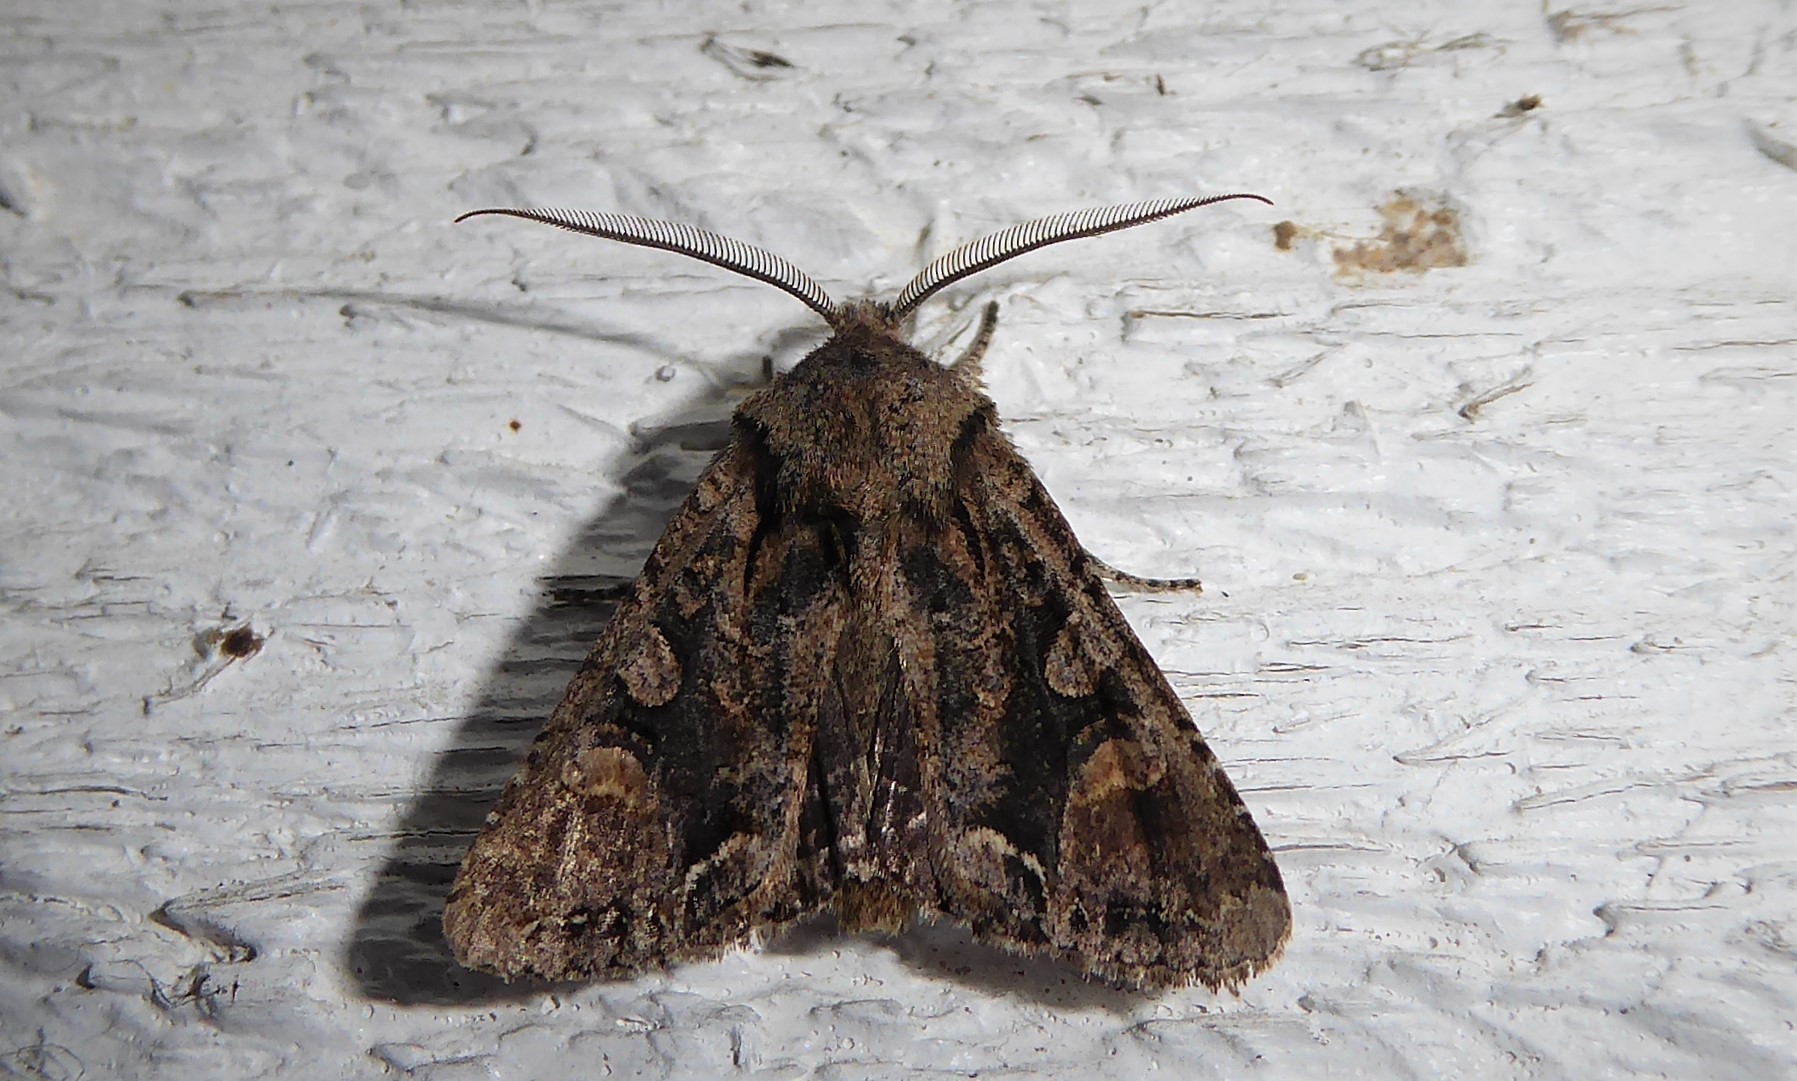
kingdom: Animalia
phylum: Arthropoda
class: Insecta
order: Lepidoptera
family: Noctuidae
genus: Ichneutica
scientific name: Ichneutica skelloni
